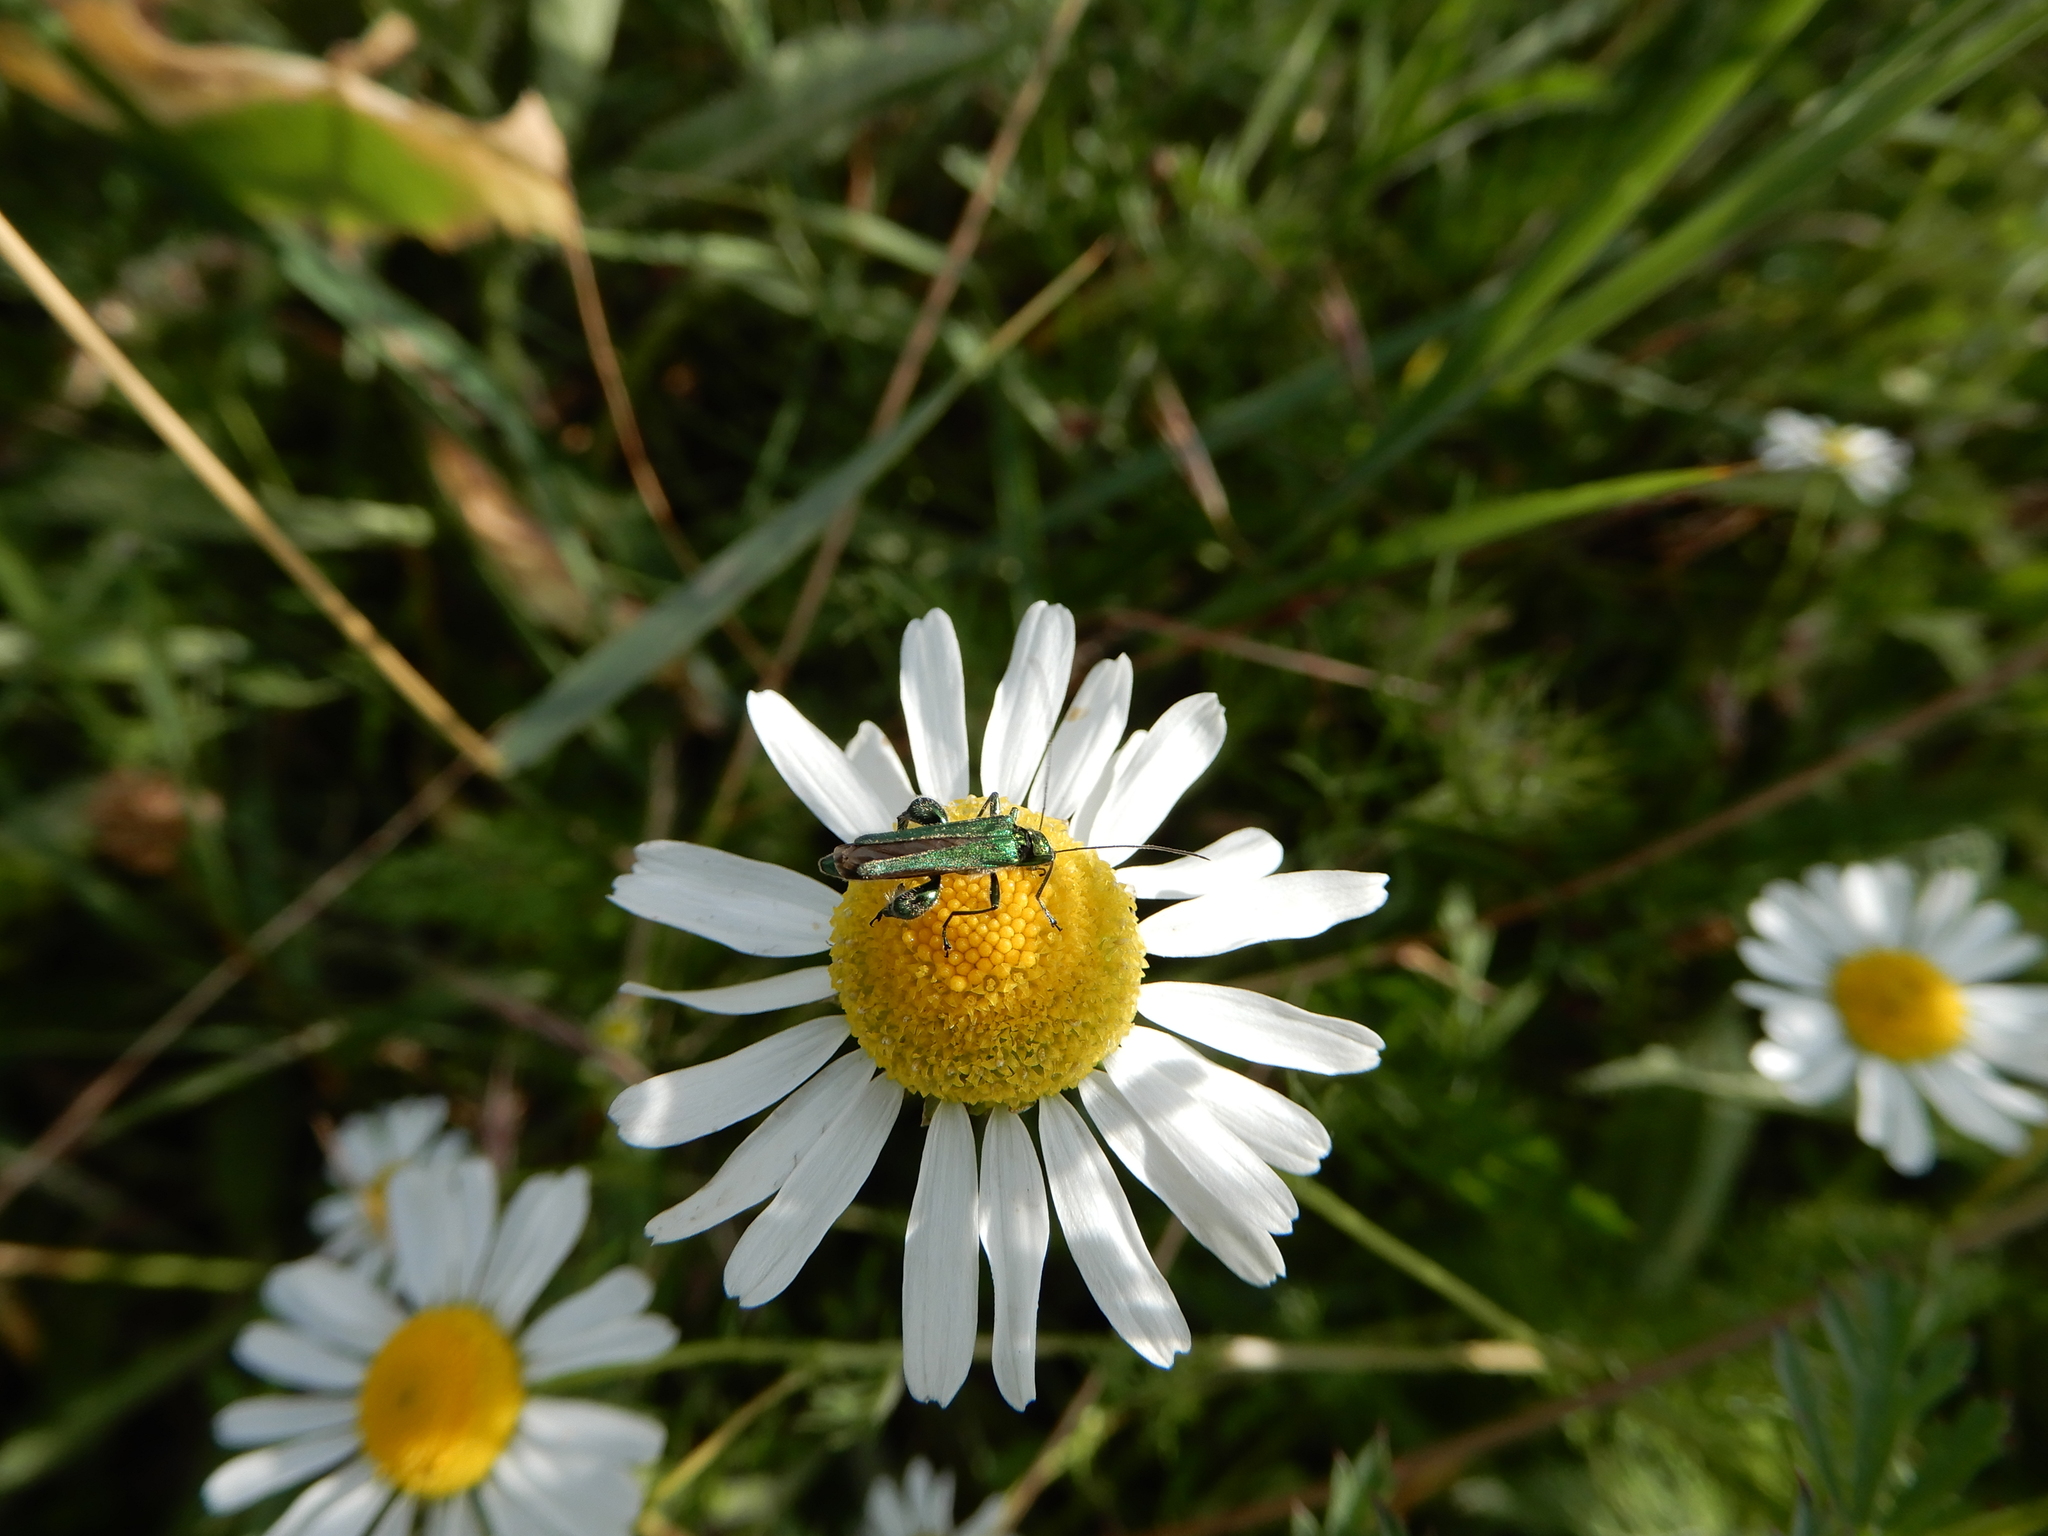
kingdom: Animalia
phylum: Arthropoda
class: Insecta
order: Coleoptera
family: Oedemeridae
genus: Oedemera
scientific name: Oedemera nobilis
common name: Swollen-thighed beetle
